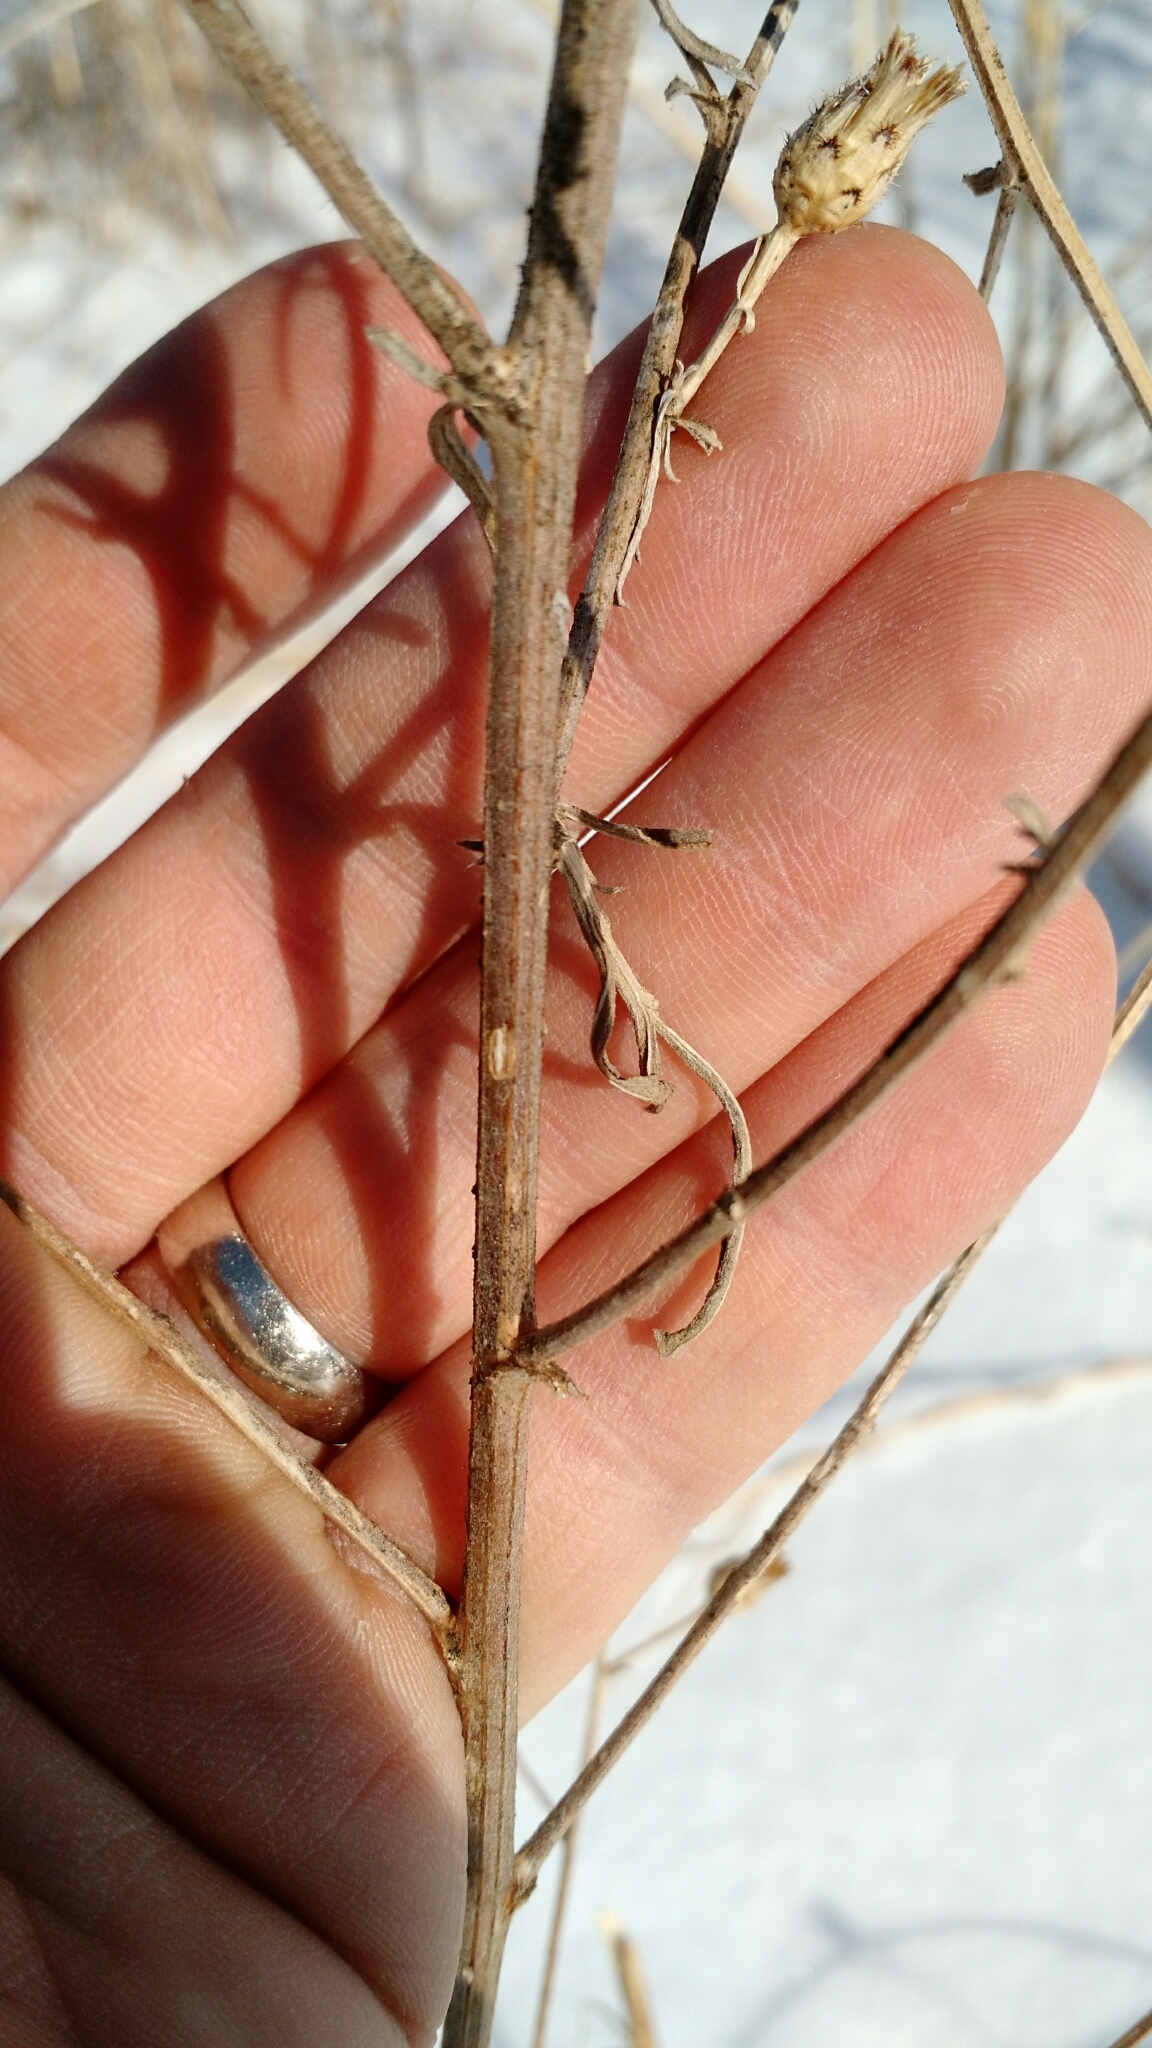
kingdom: Plantae
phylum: Tracheophyta
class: Magnoliopsida
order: Asterales
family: Asteraceae
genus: Centaurea
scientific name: Centaurea stoebe
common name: Spotted knapweed
